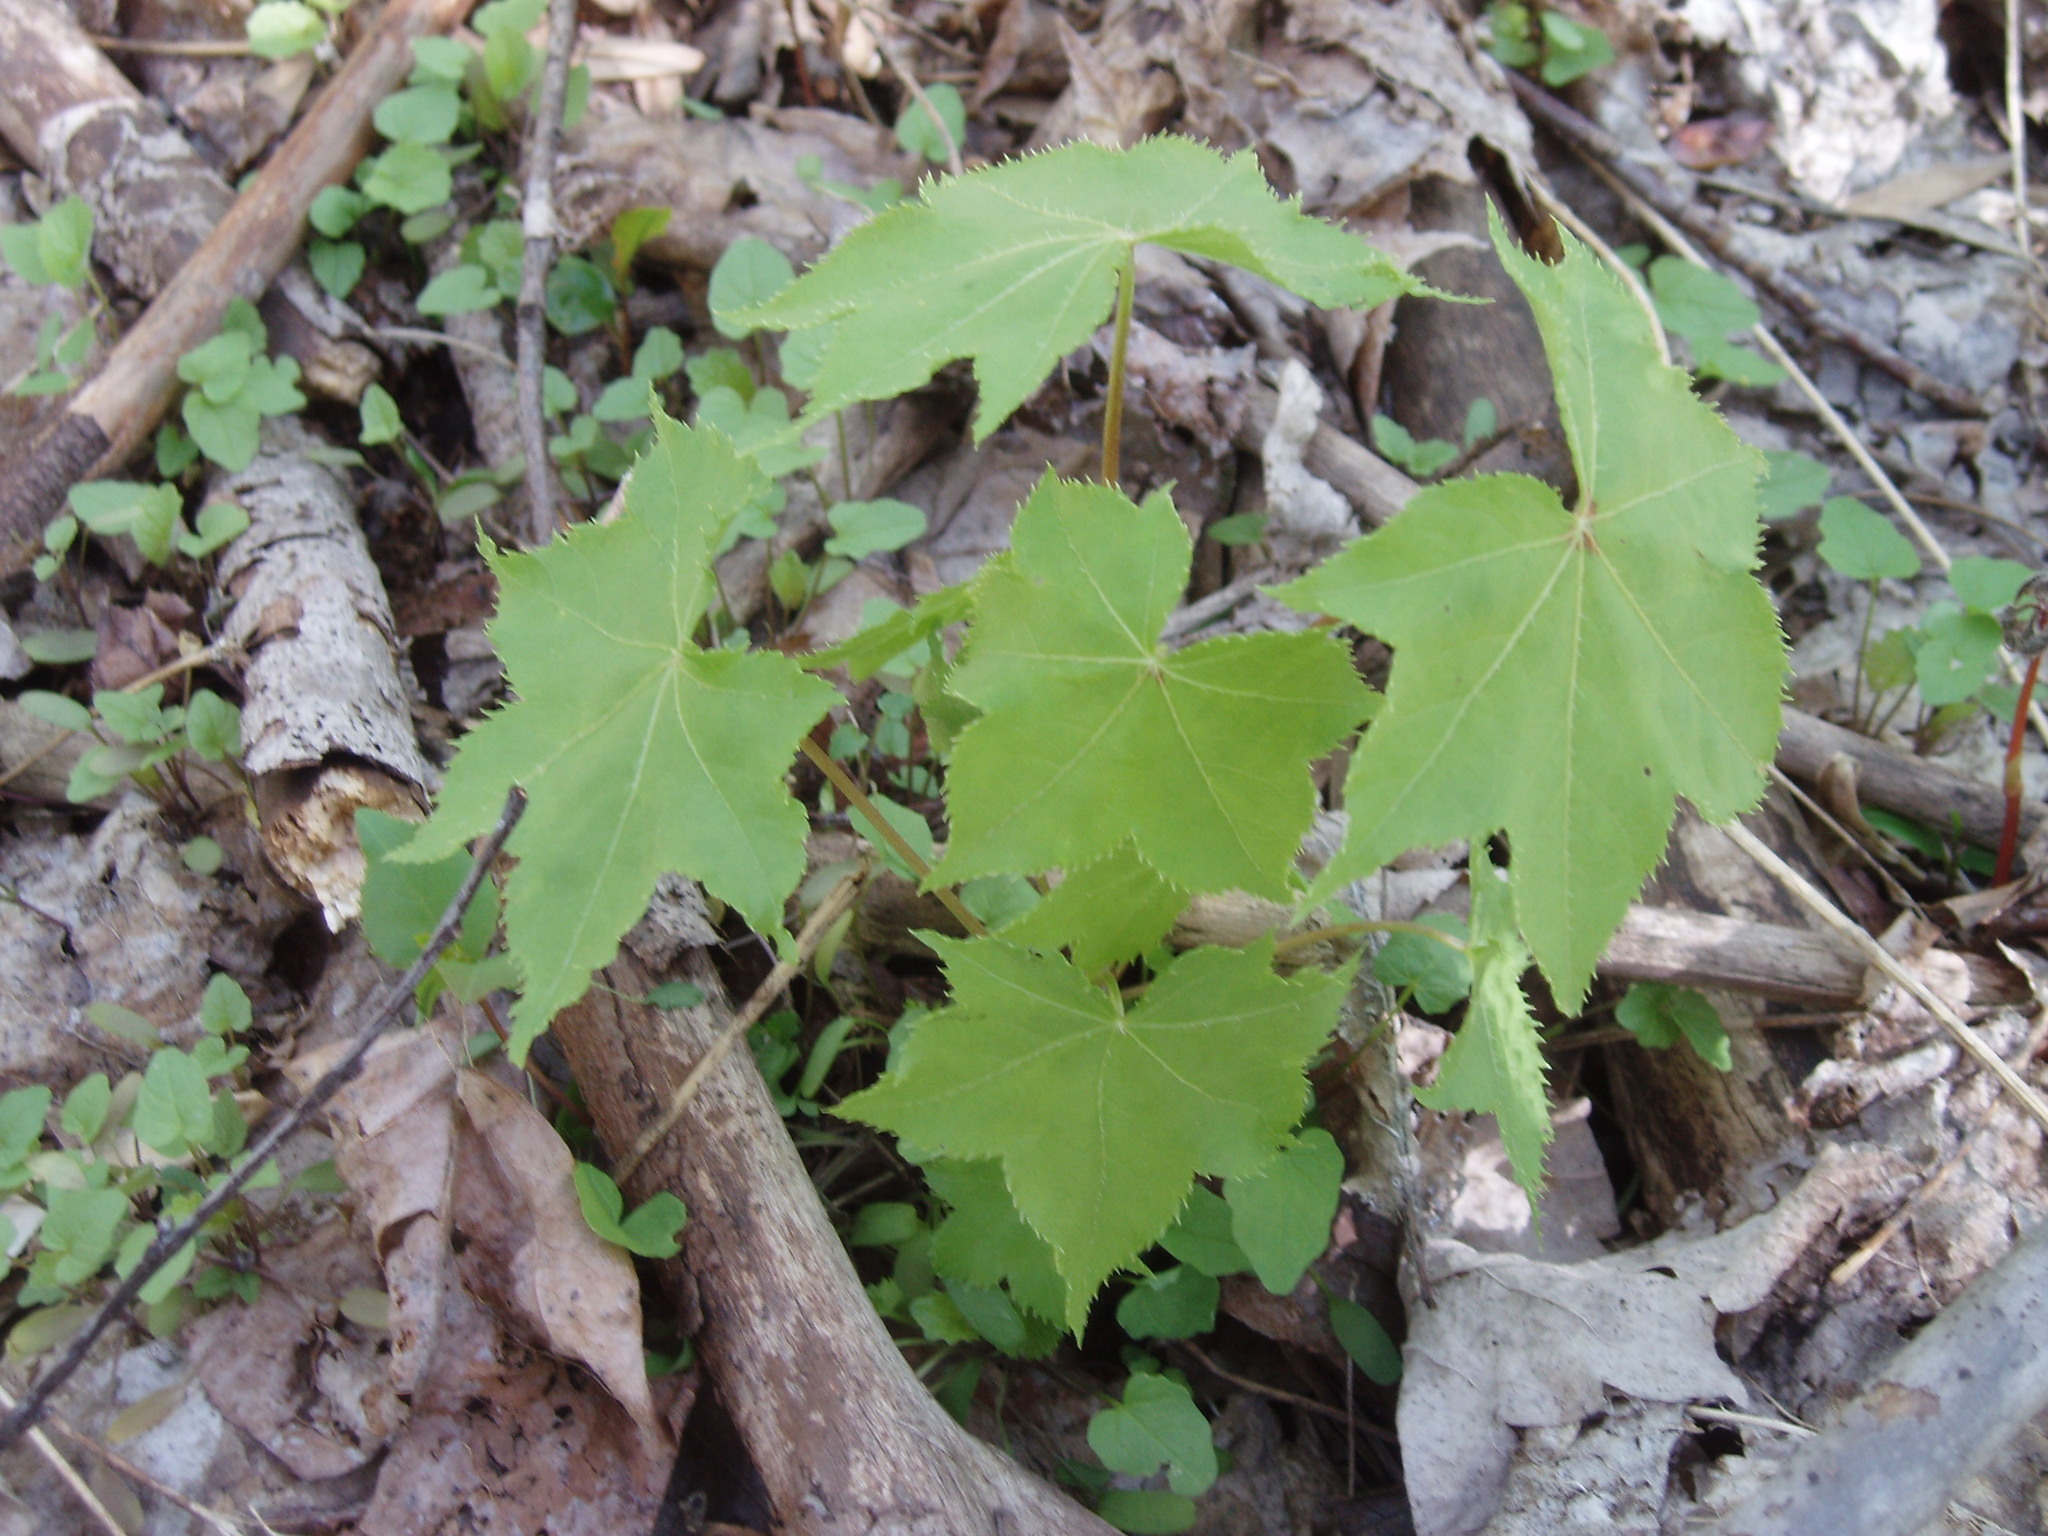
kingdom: Plantae
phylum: Tracheophyta
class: Magnoliopsida
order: Apiales
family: Araliaceae
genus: Kalopanax
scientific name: Kalopanax septemlobus
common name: Castor aralia
